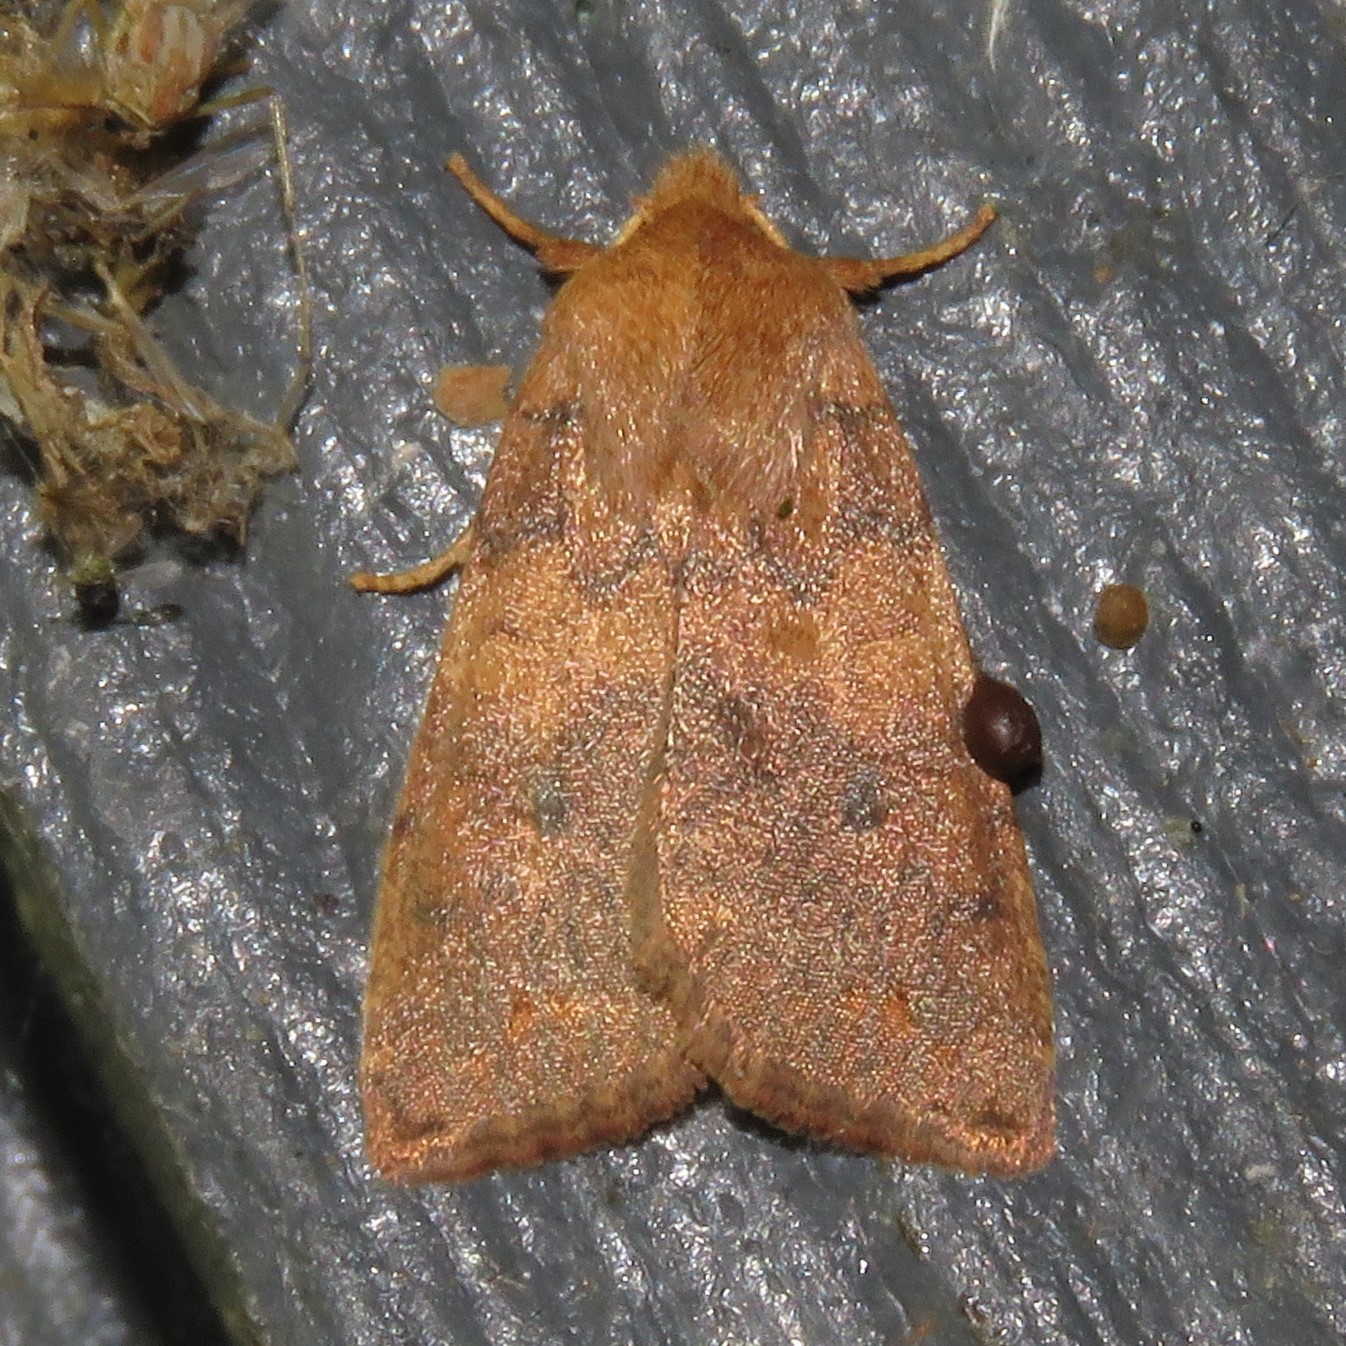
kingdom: Animalia
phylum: Arthropoda
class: Insecta
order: Lepidoptera
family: Noctuidae
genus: Agrochola
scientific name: Agrochola bicolorago
